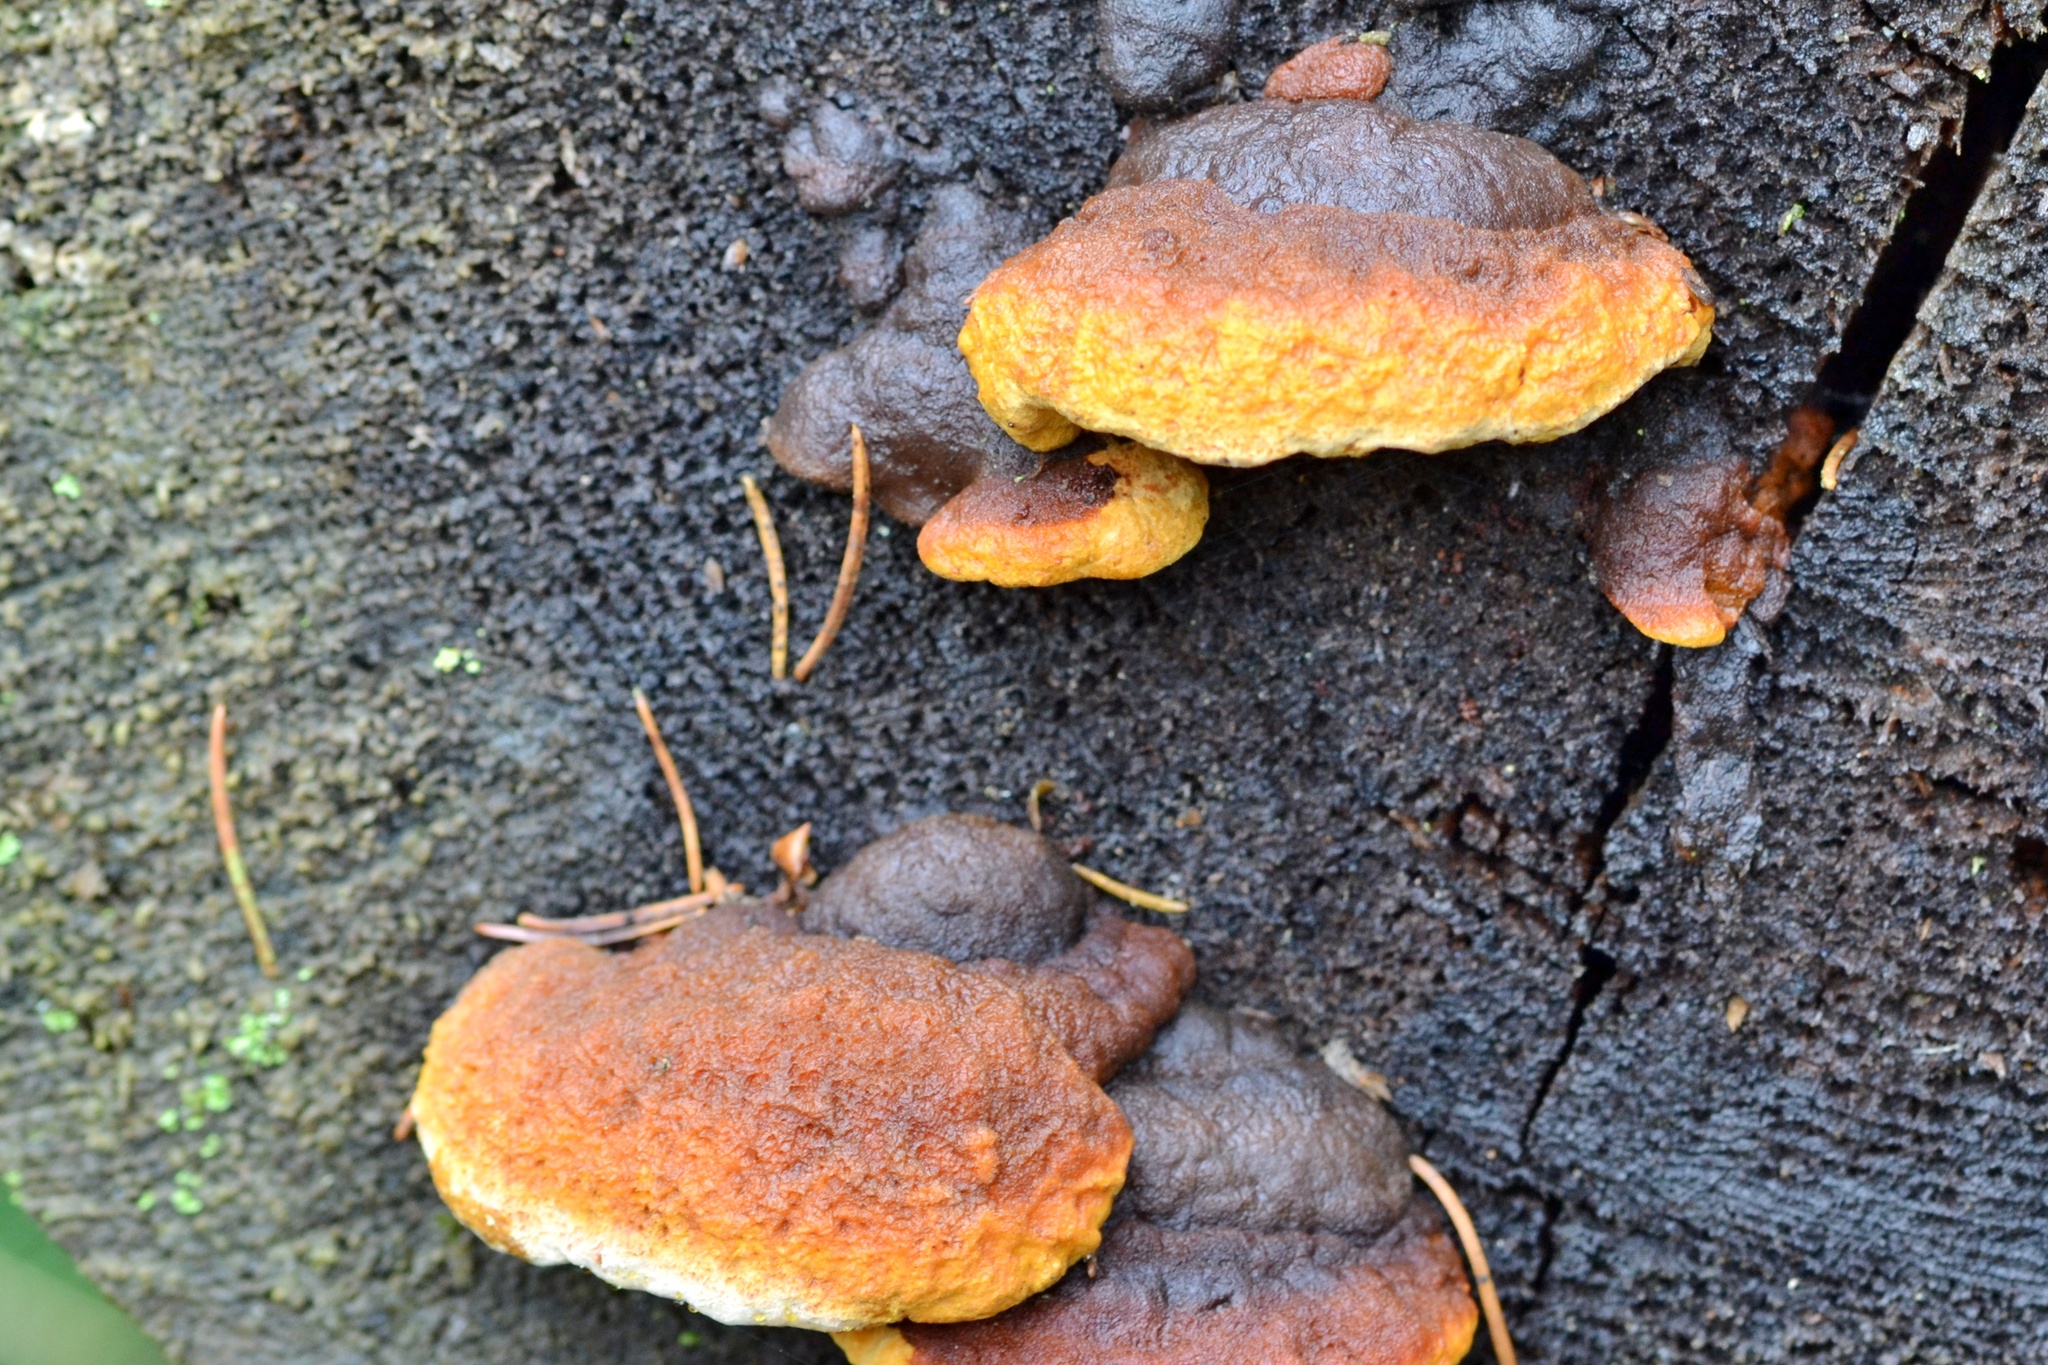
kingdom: Fungi
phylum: Basidiomycota
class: Agaricomycetes
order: Gloeophyllales
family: Gloeophyllaceae
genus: Gloeophyllum
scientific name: Gloeophyllum odoratum
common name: Anise mazegill
